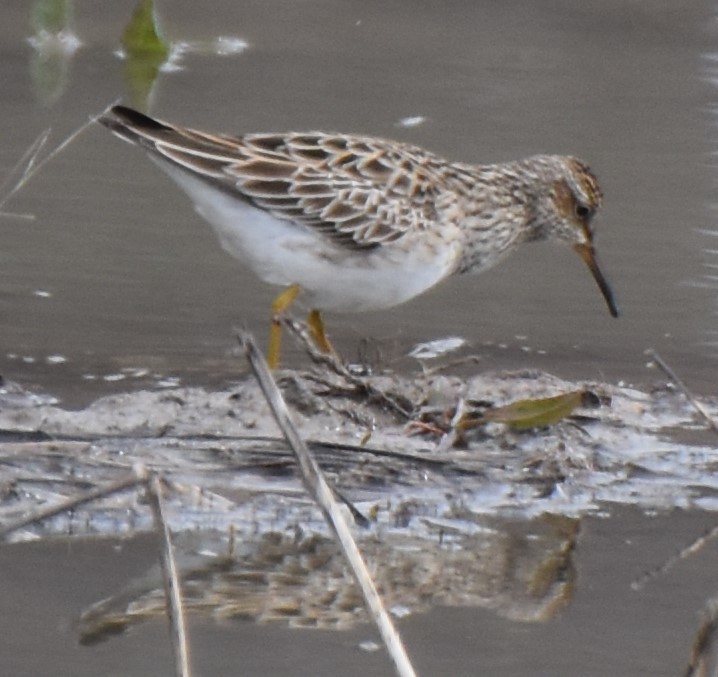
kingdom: Animalia
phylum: Chordata
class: Aves
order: Charadriiformes
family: Scolopacidae
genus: Calidris
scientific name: Calidris melanotos
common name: Pectoral sandpiper
